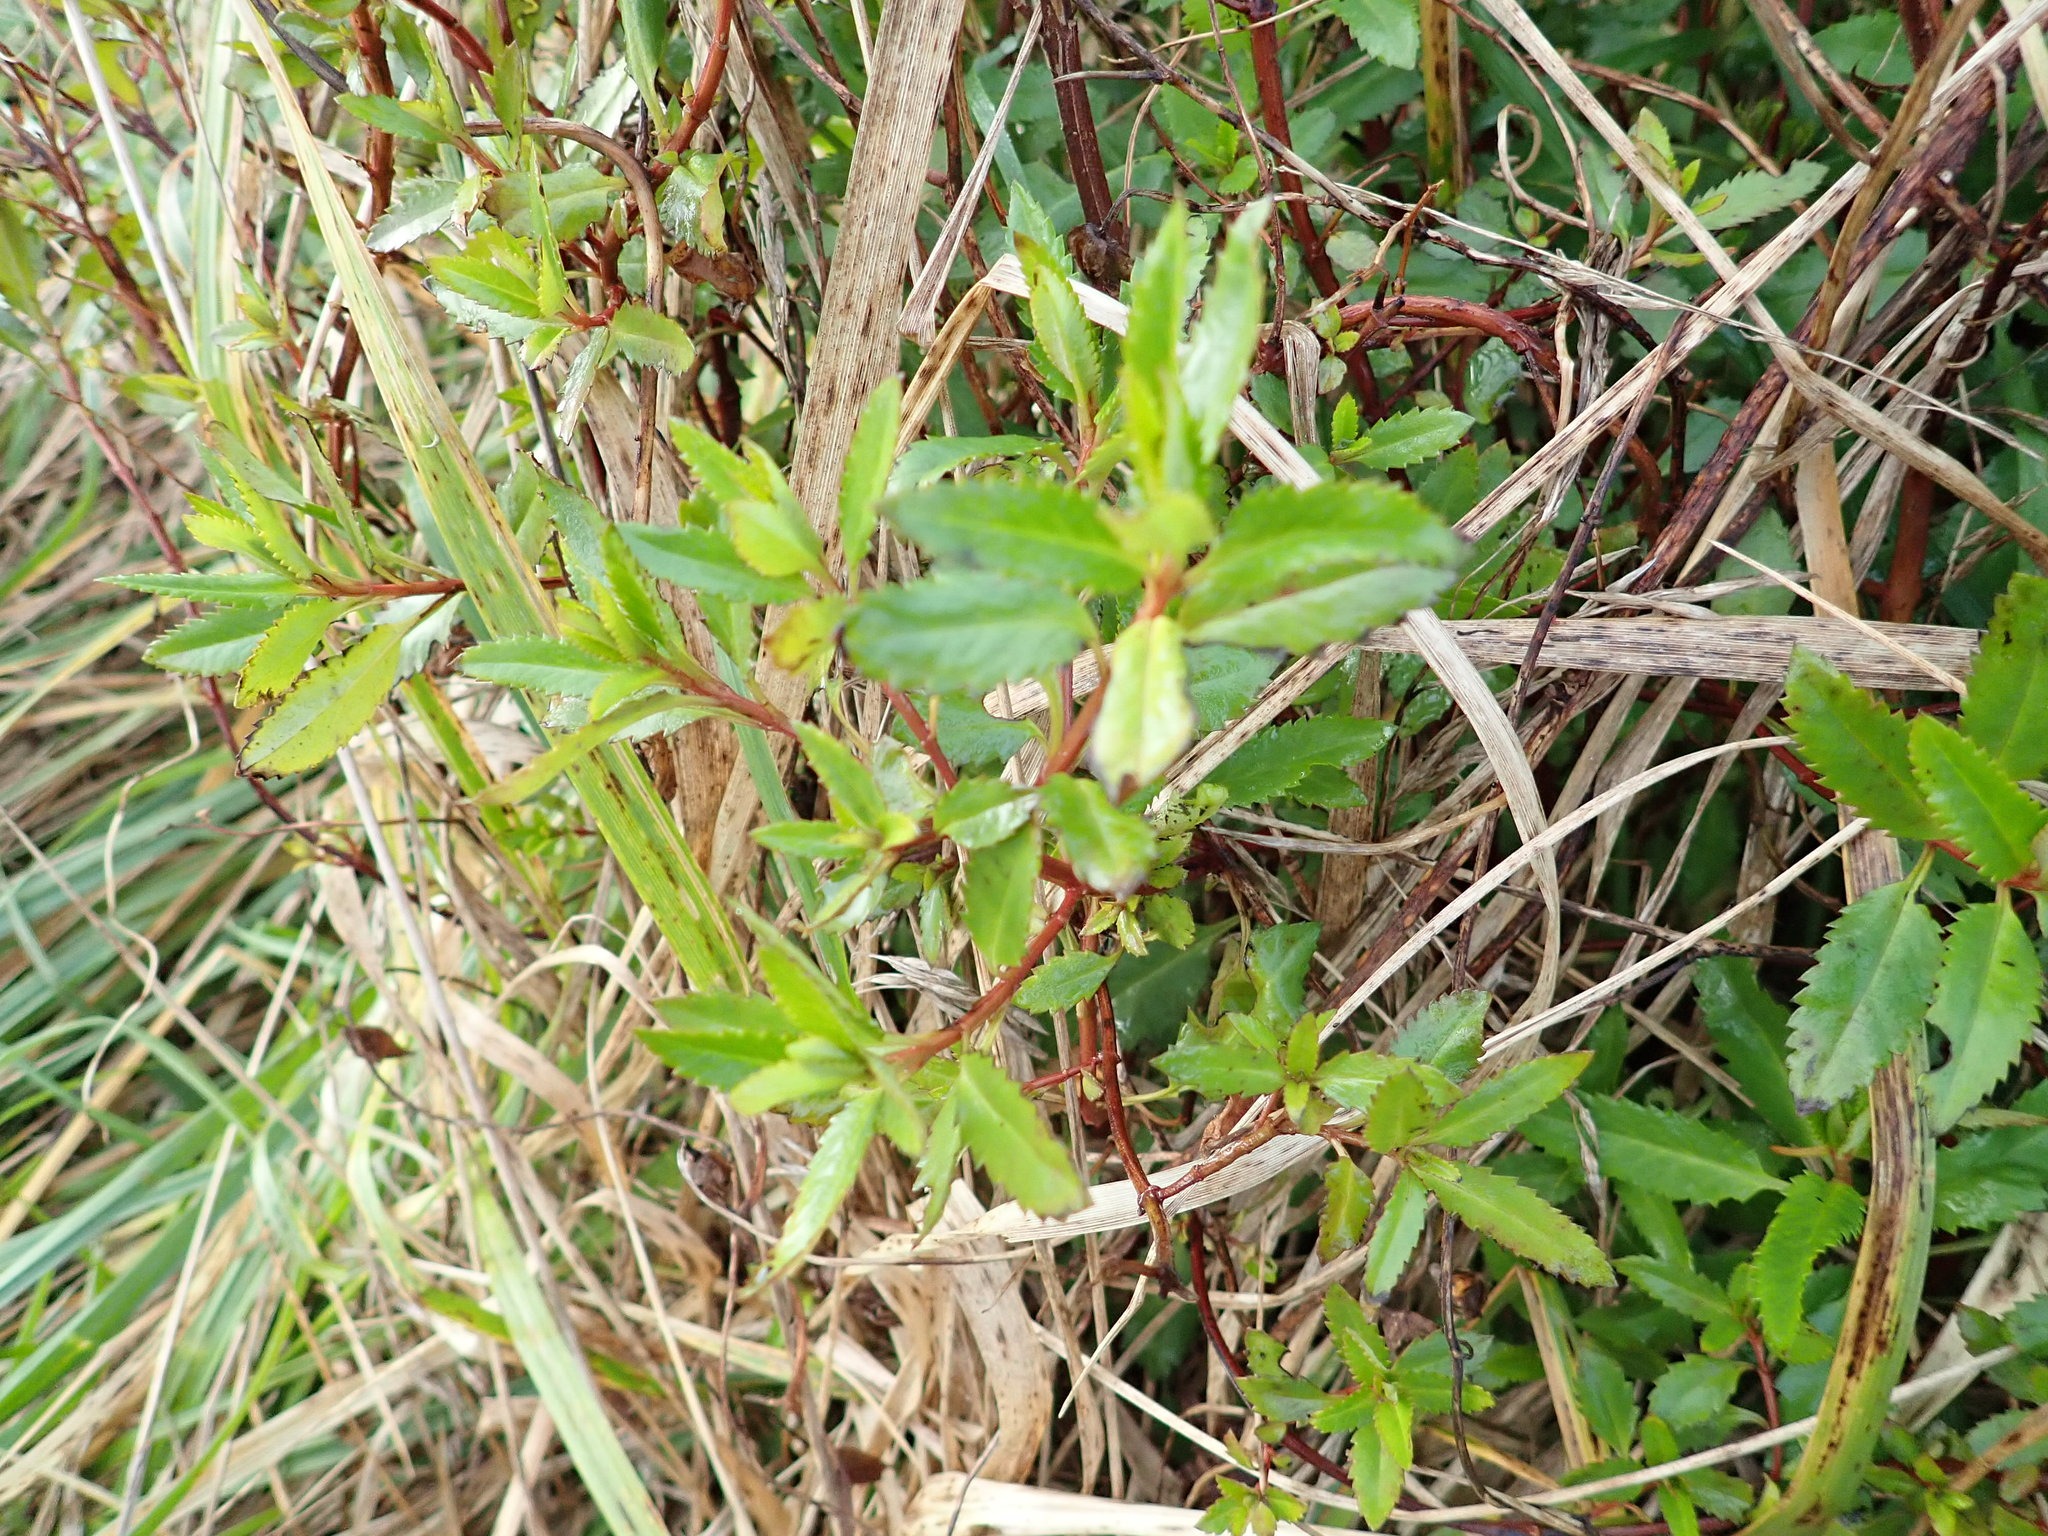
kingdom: Plantae
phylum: Tracheophyta
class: Magnoliopsida
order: Saxifragales
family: Haloragaceae
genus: Haloragis
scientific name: Haloragis erecta
